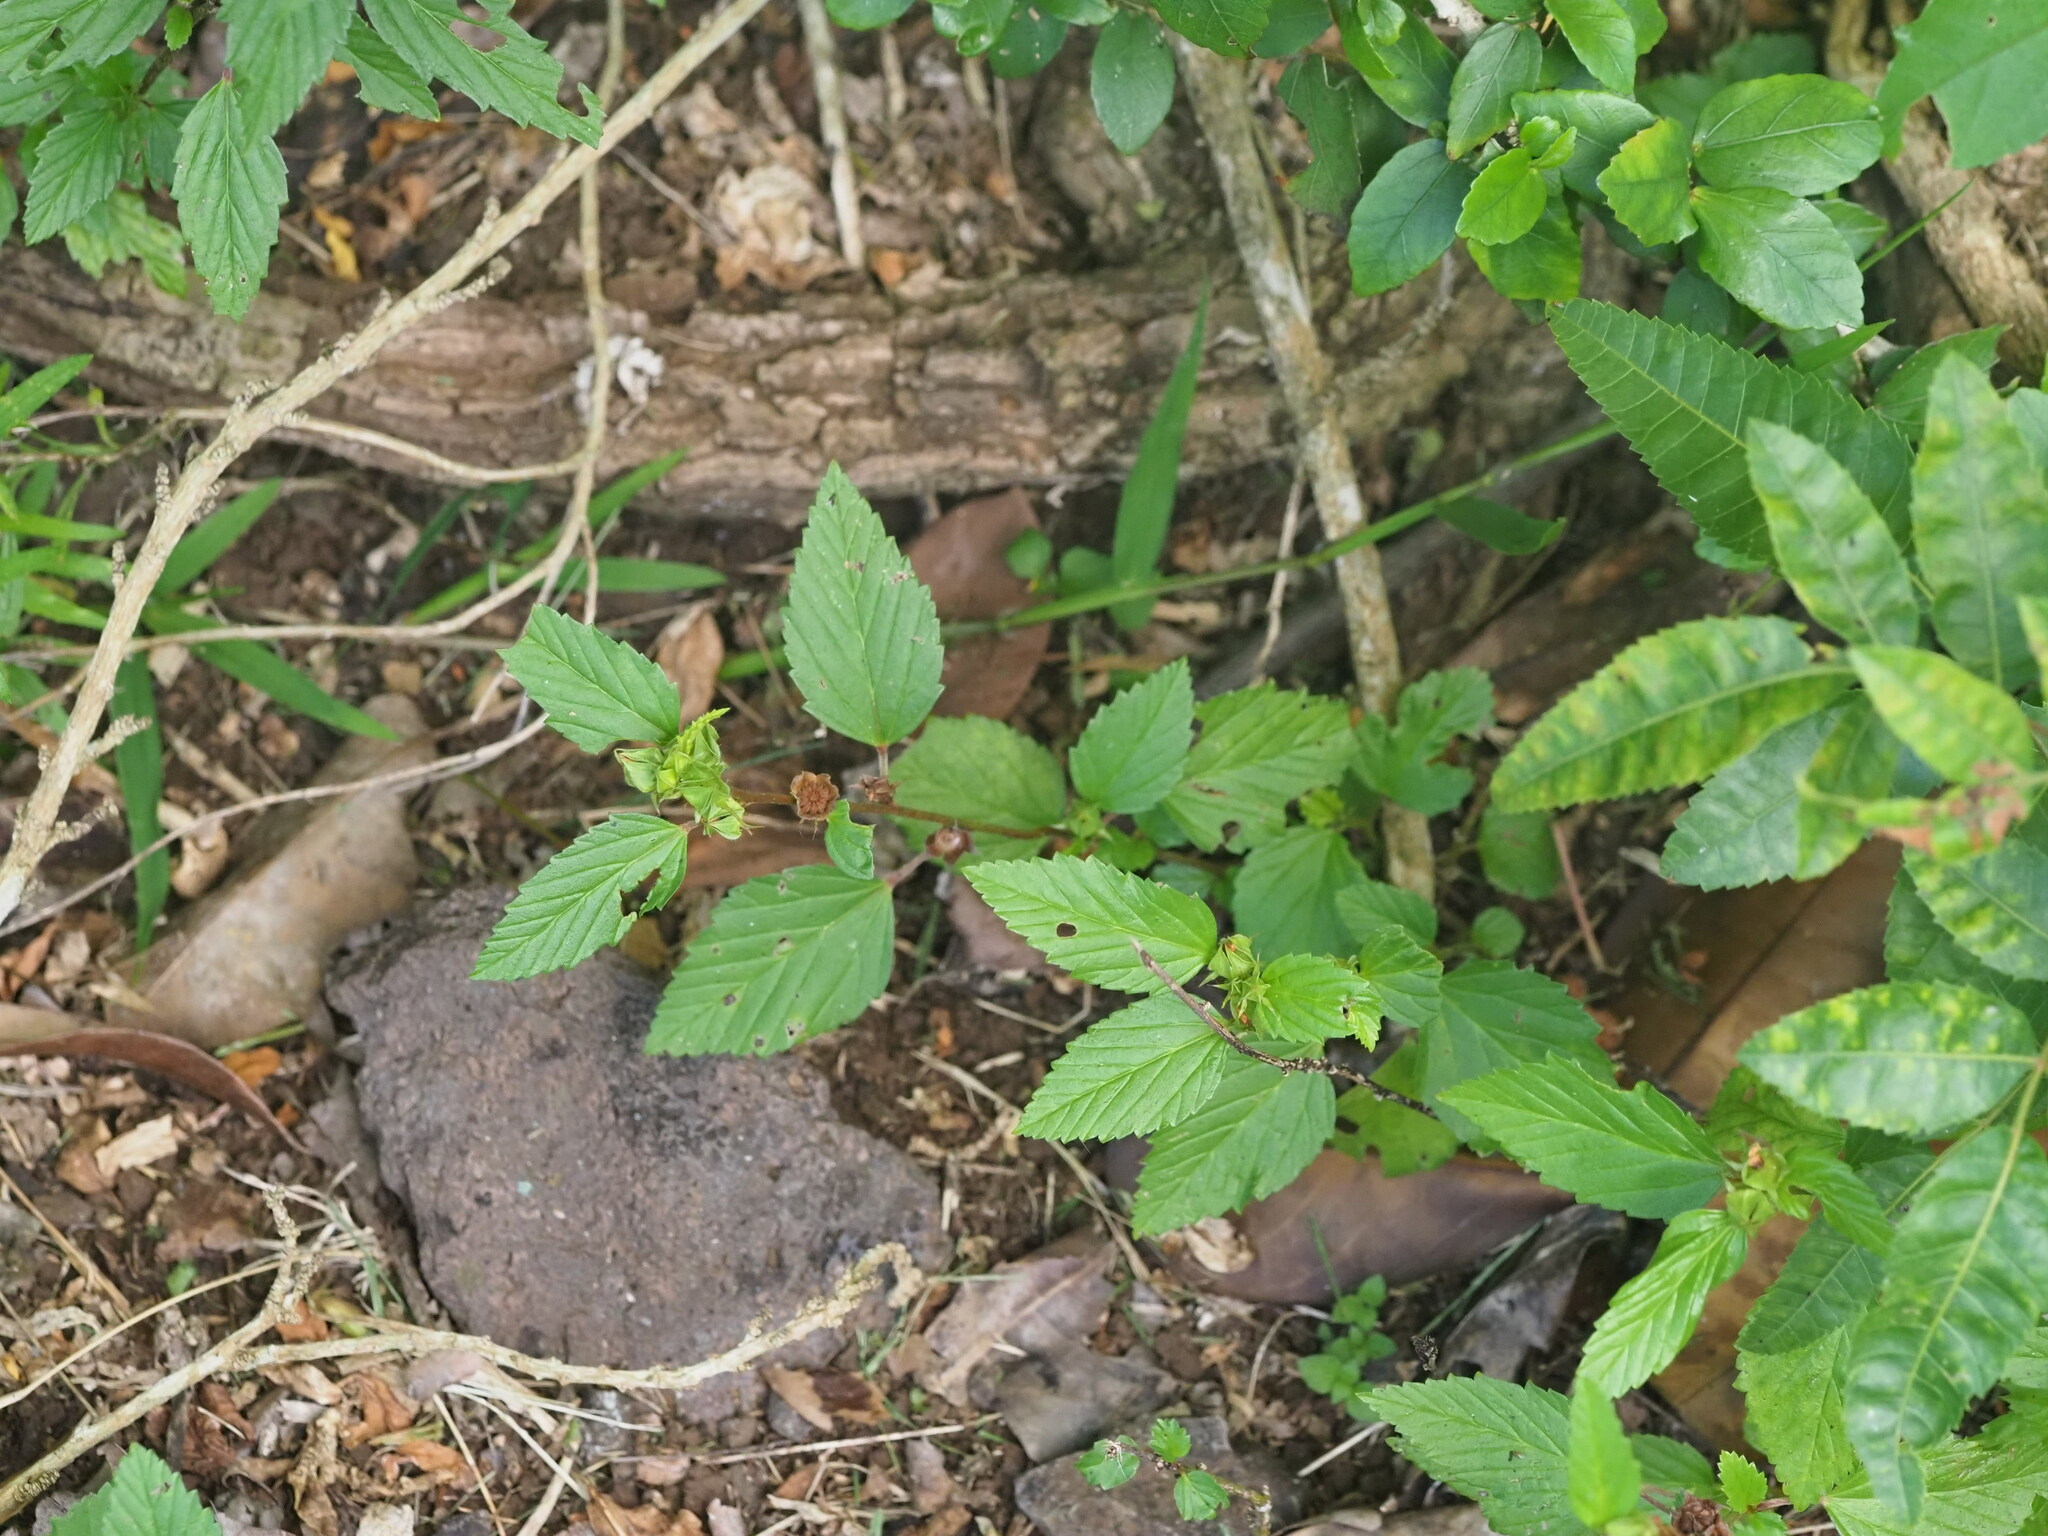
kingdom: Plantae
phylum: Tracheophyta
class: Magnoliopsida
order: Malvales
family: Malvaceae
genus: Malvastrum
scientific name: Malvastrum coromandelianum
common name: Threelobe false mallow
